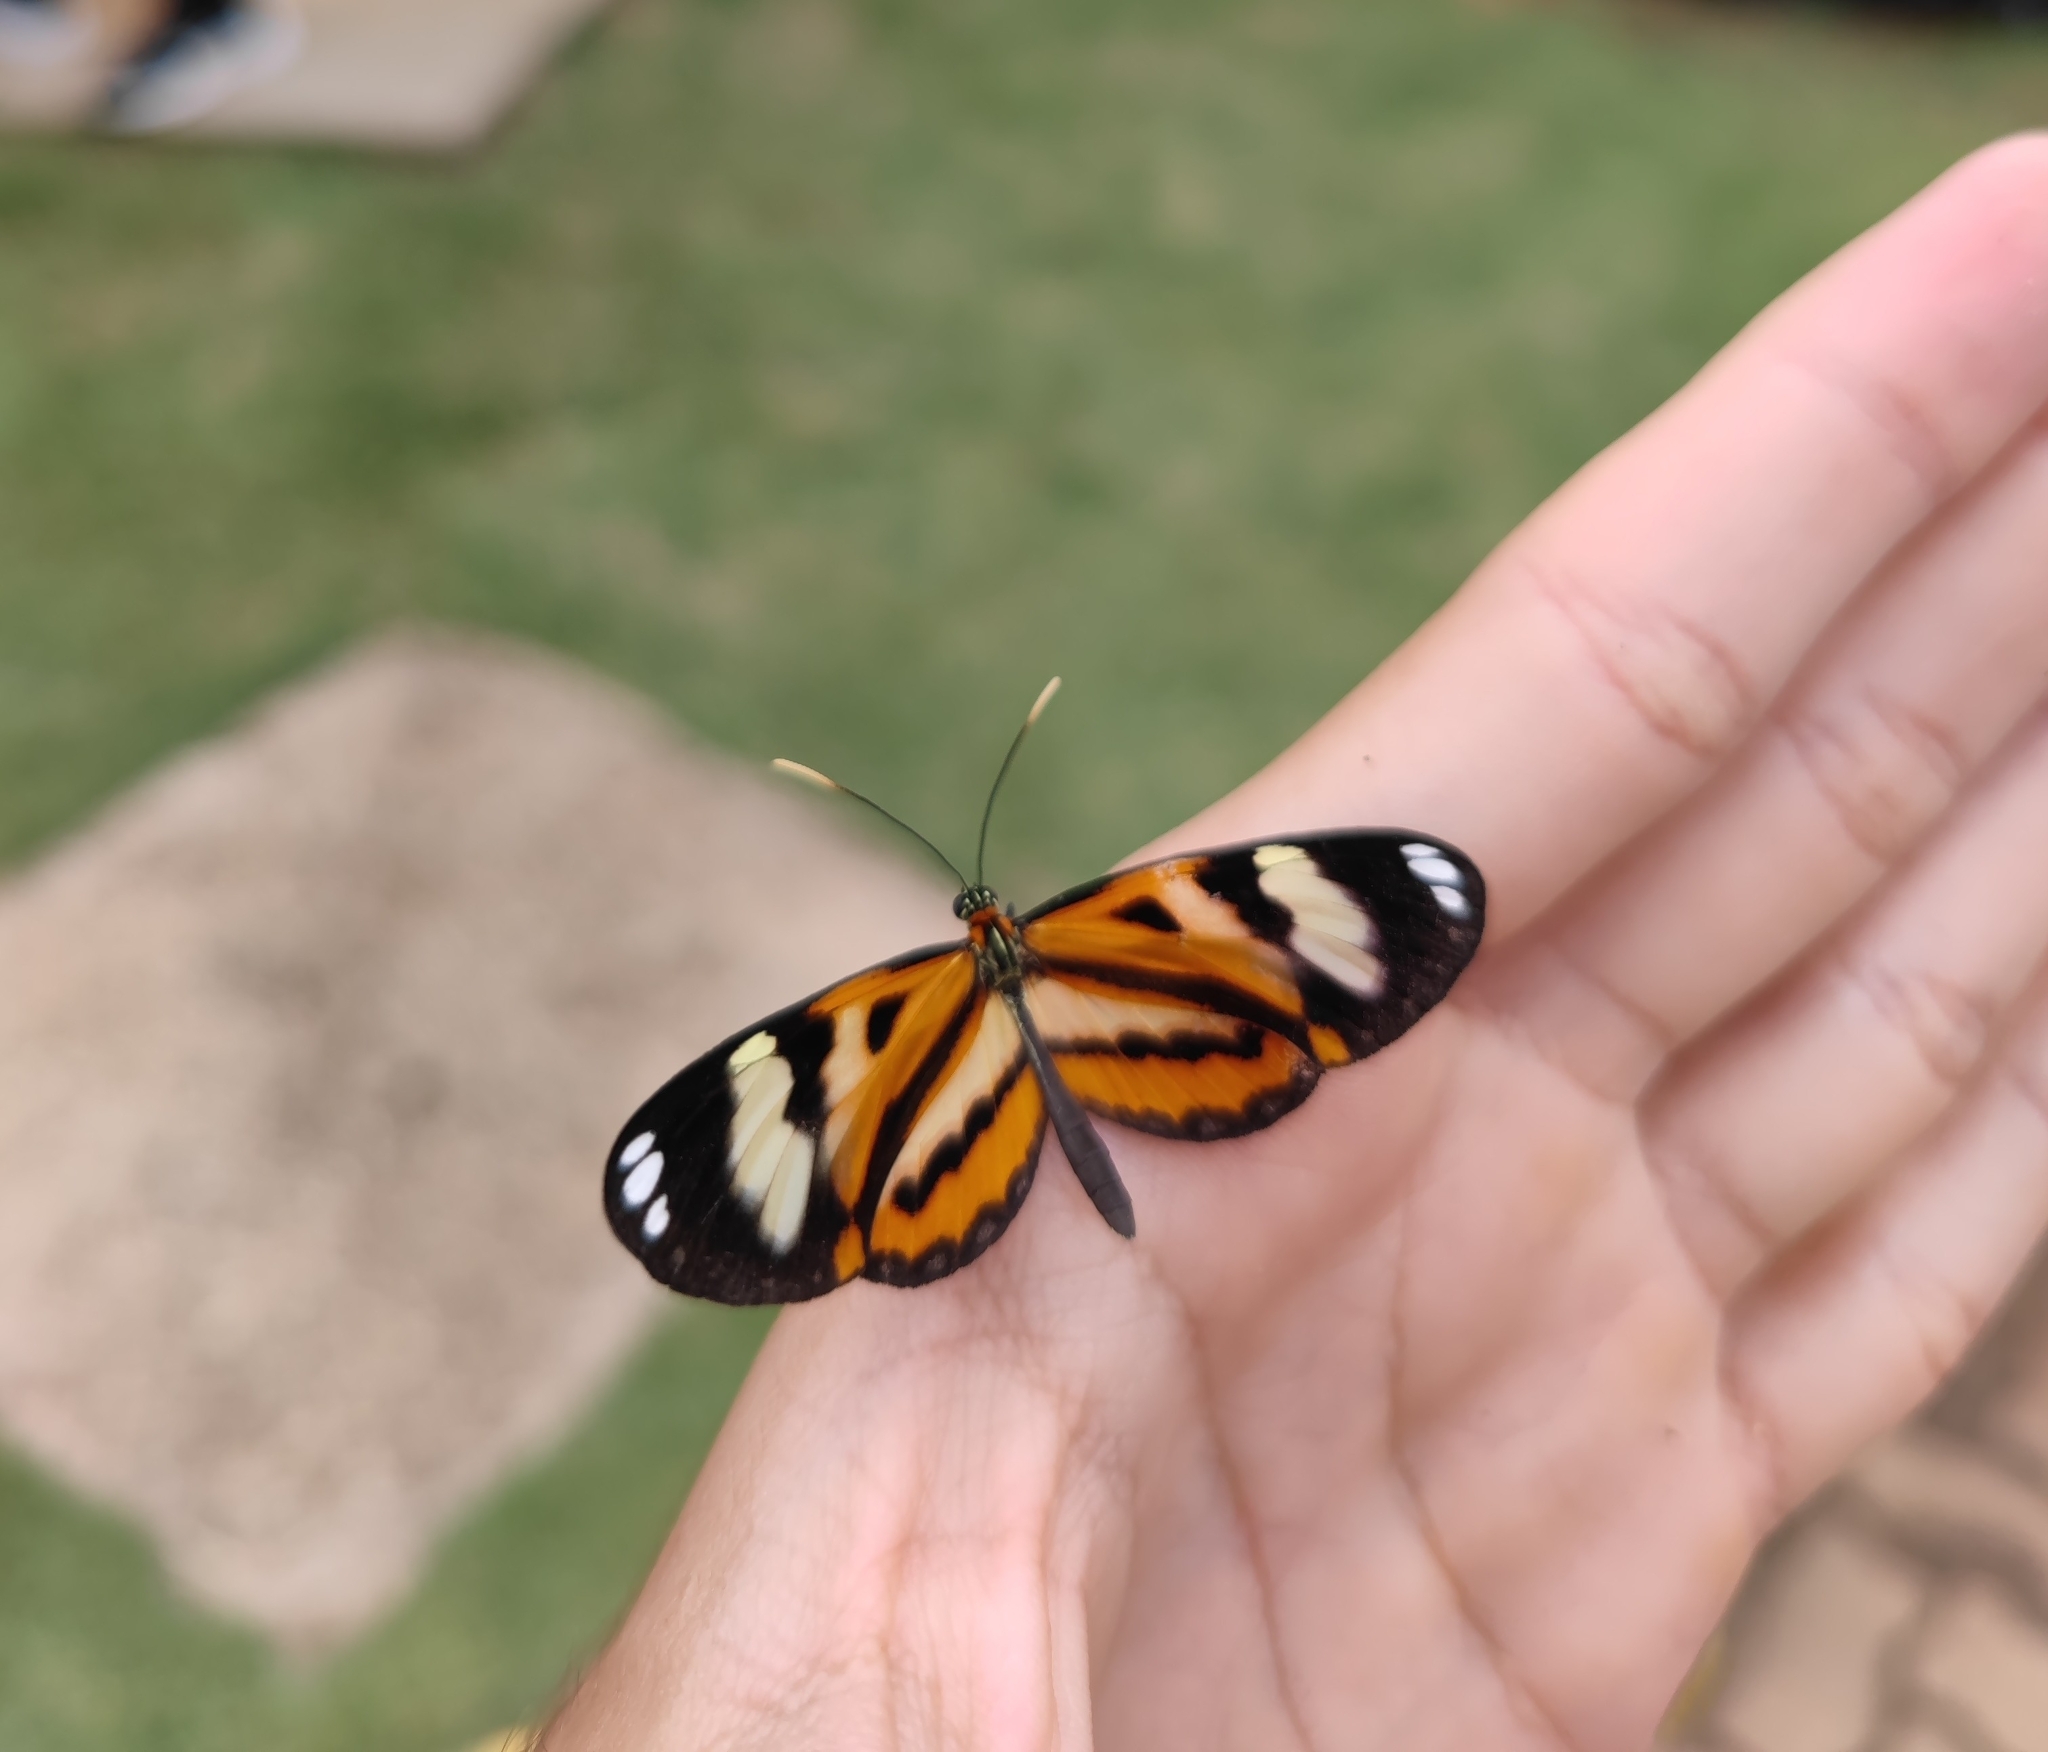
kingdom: Animalia
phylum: Arthropoda
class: Insecta
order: Lepidoptera
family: Nymphalidae
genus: Hypothyris
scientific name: Hypothyris ninonia
